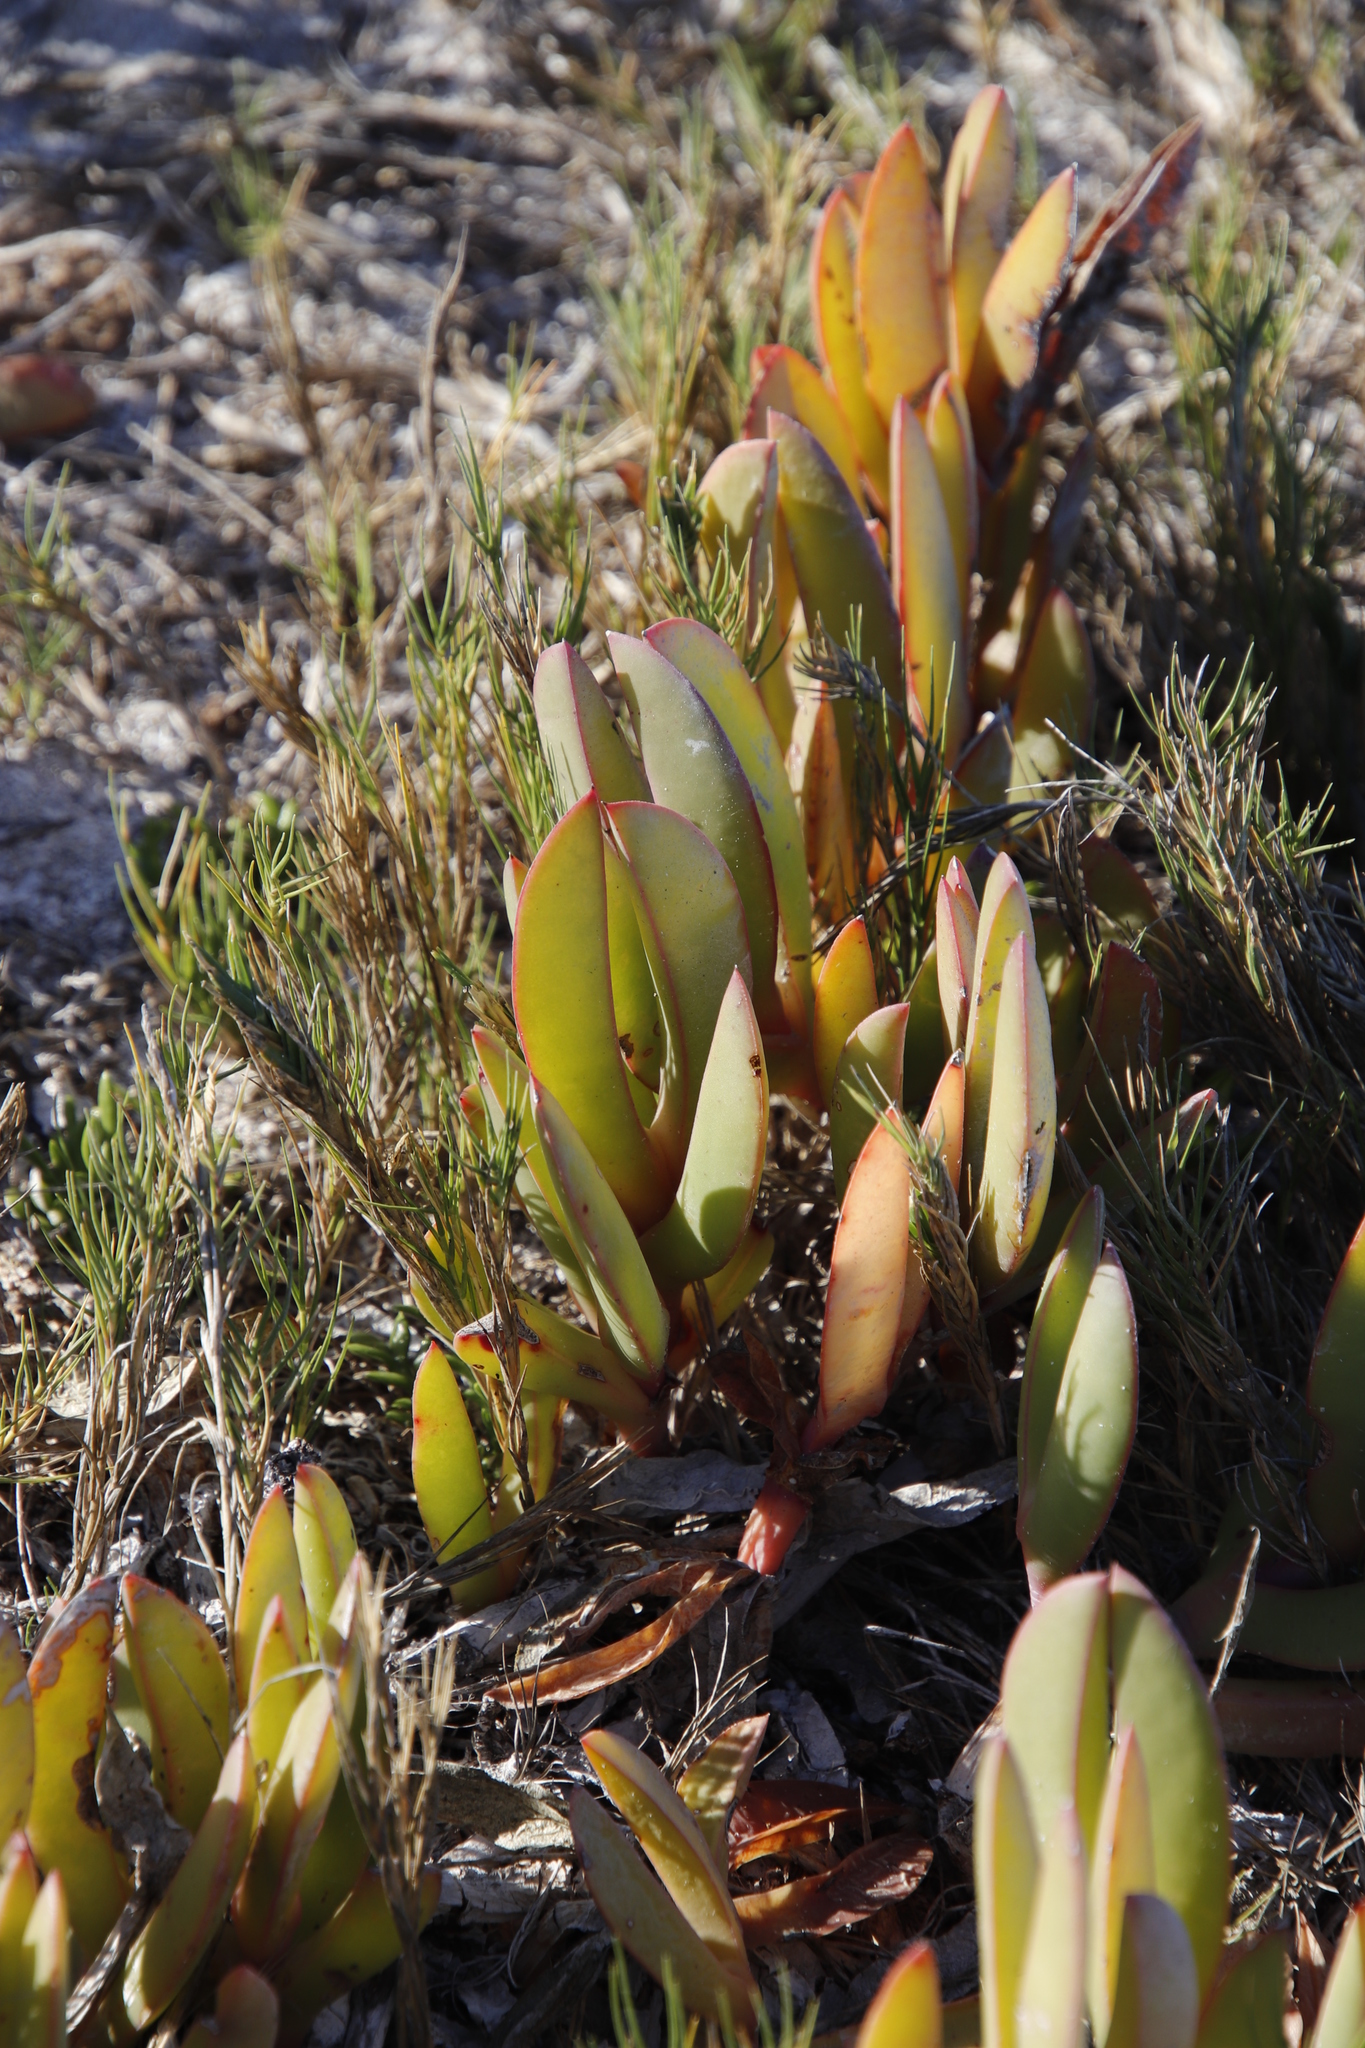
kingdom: Plantae
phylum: Tracheophyta
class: Magnoliopsida
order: Caryophyllales
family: Aizoaceae
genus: Carpobrotus
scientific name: Carpobrotus acinaciformis
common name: Sally-my-handsome
